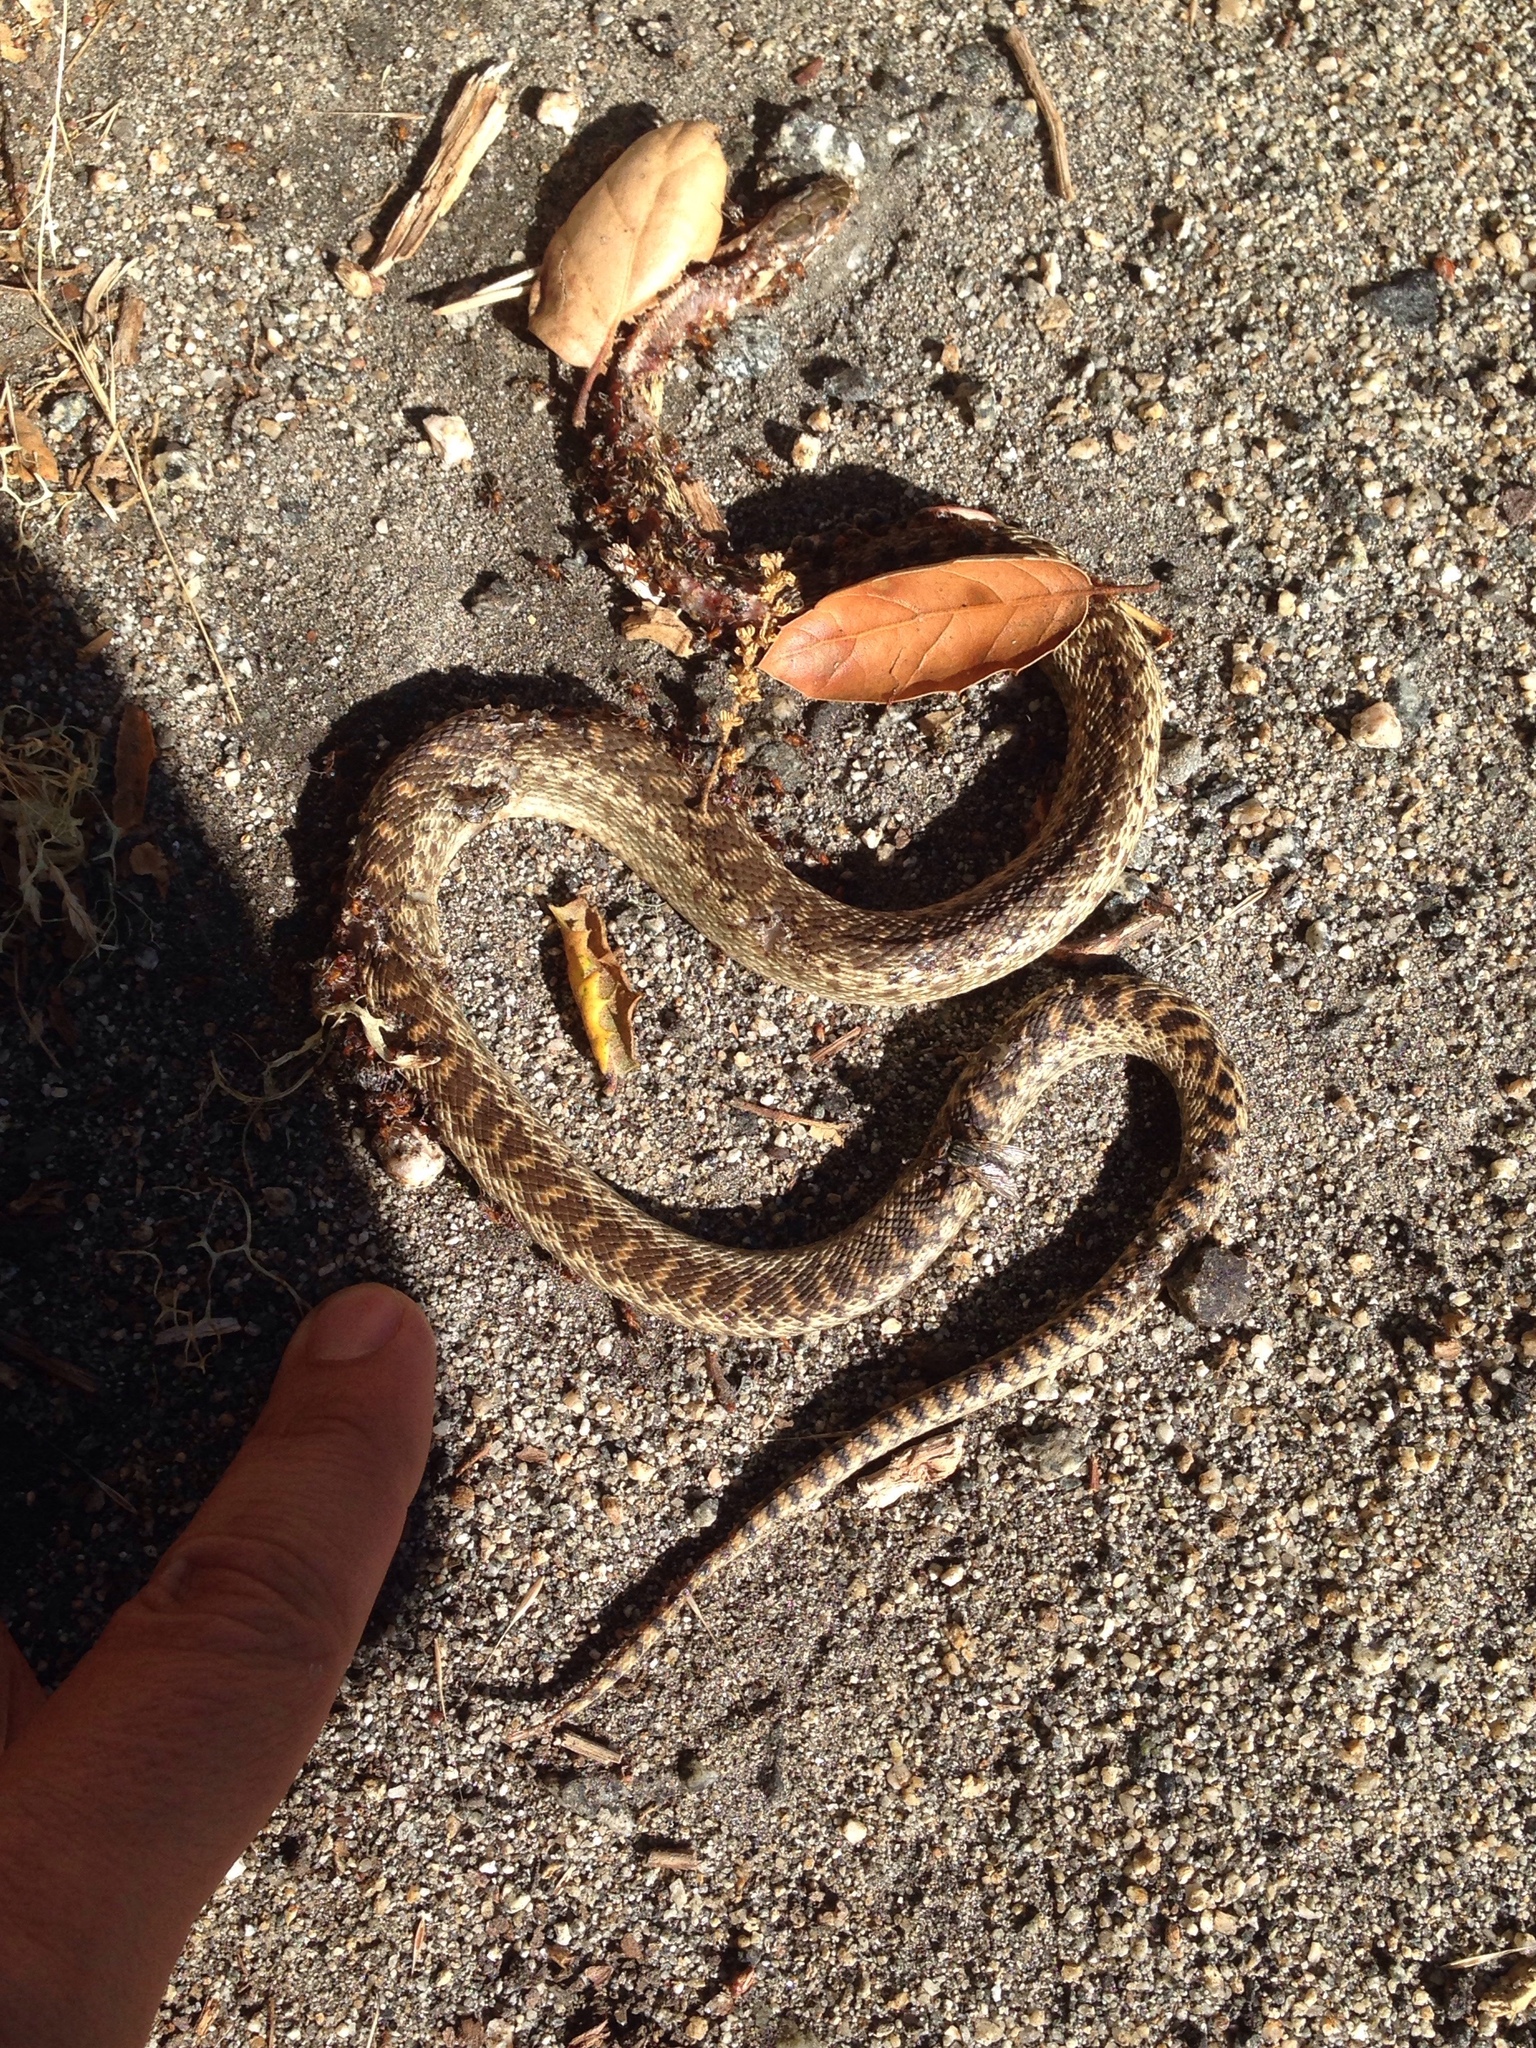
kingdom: Animalia
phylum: Chordata
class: Squamata
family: Colubridae
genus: Pituophis
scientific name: Pituophis catenifer
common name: Gopher snake
